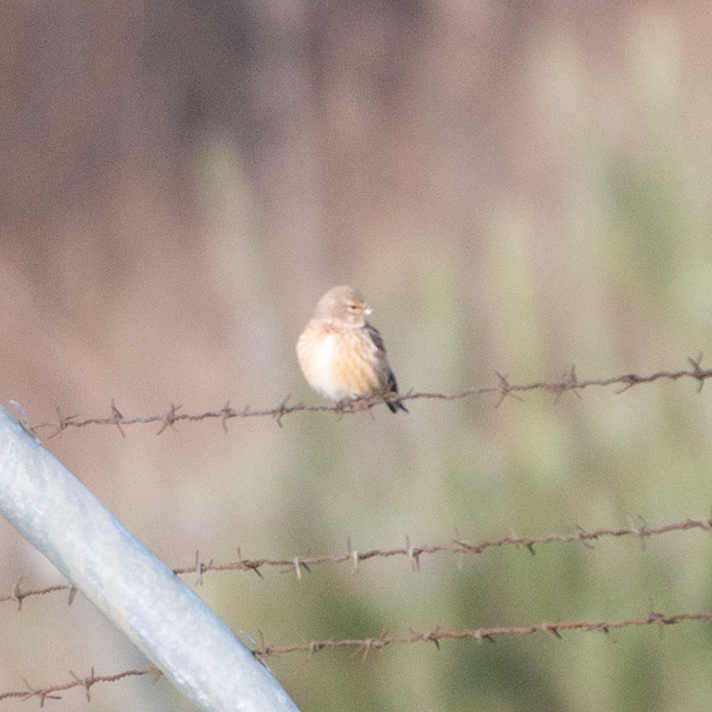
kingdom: Animalia
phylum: Chordata
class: Aves
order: Passeriformes
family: Fringillidae
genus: Linaria
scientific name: Linaria cannabina
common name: Common linnet
